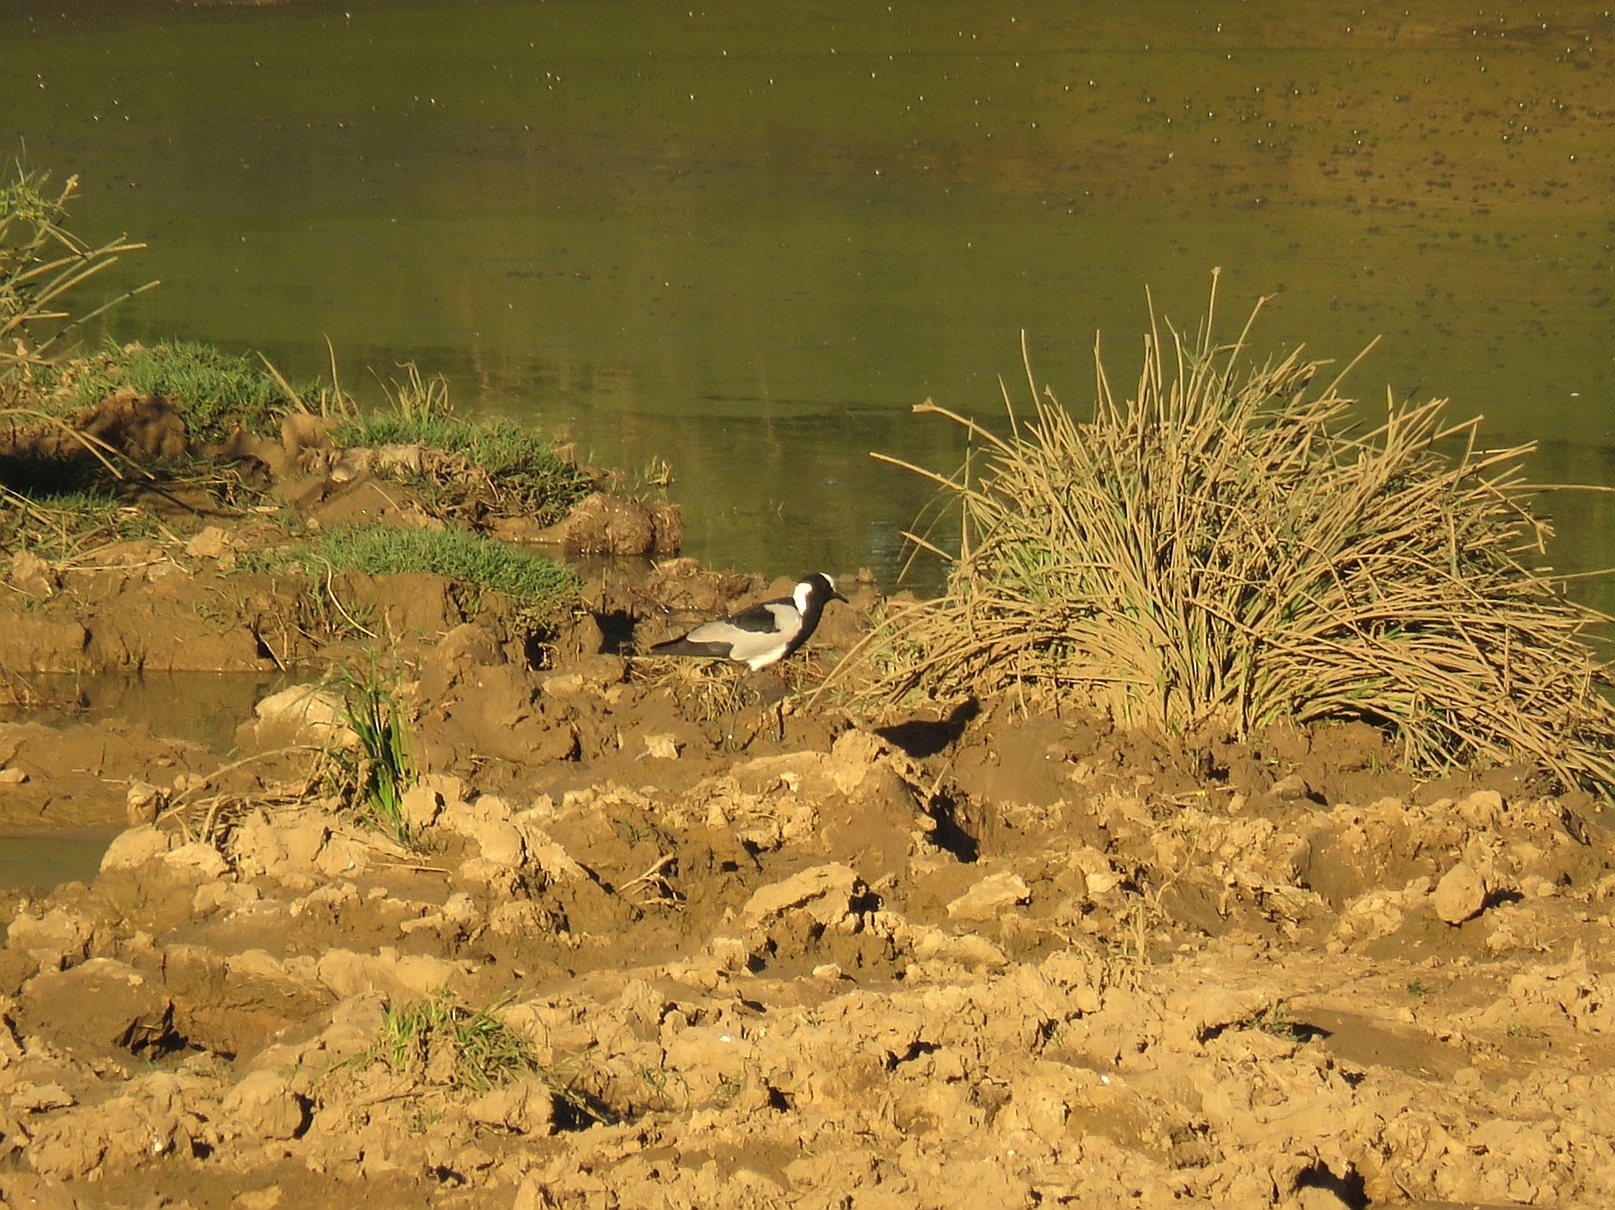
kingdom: Animalia
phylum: Chordata
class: Aves
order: Charadriiformes
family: Charadriidae
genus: Vanellus
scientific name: Vanellus armatus
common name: Blacksmith lapwing
